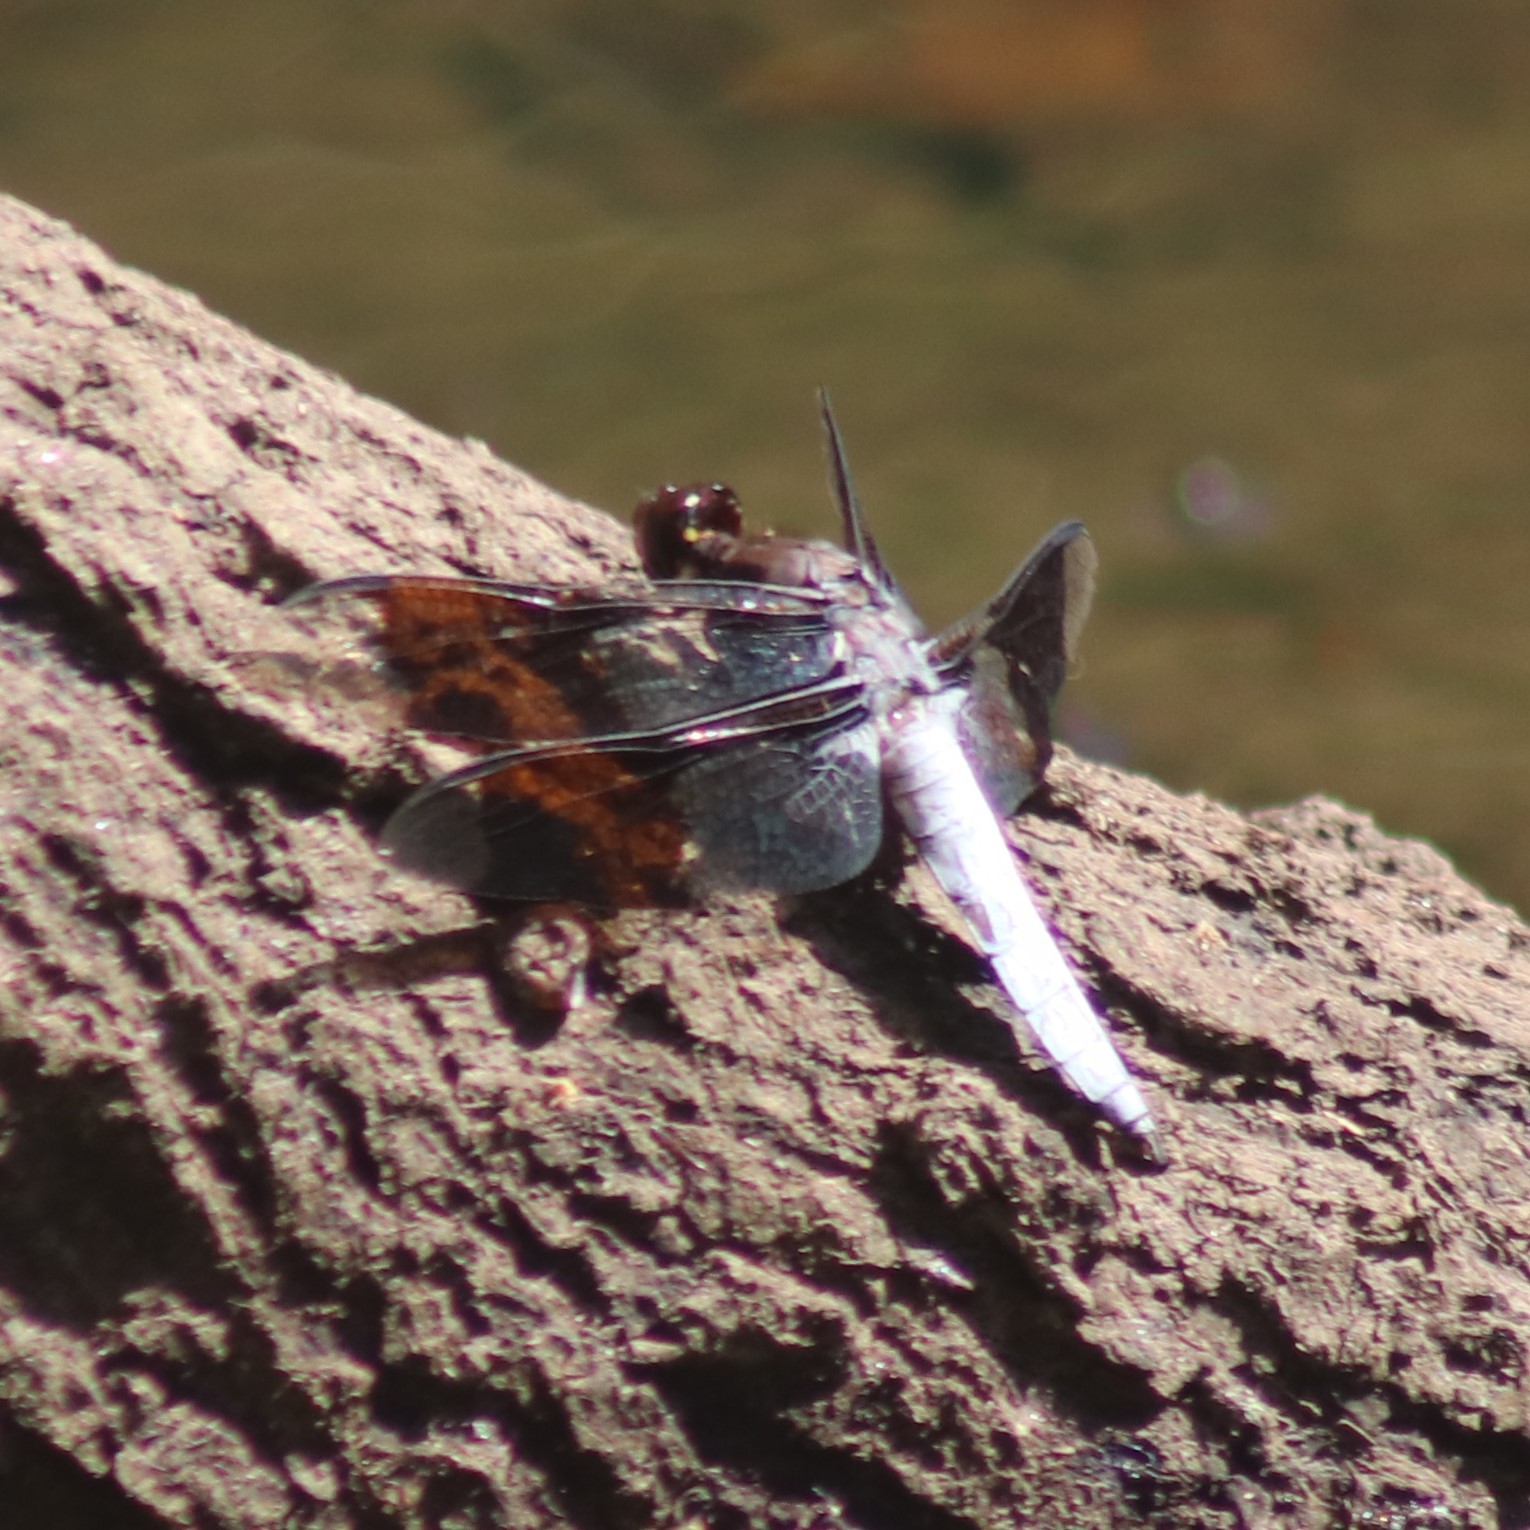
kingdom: Animalia
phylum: Arthropoda
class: Insecta
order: Odonata
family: Libellulidae
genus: Plathemis
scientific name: Plathemis lydia
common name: Common whitetail
